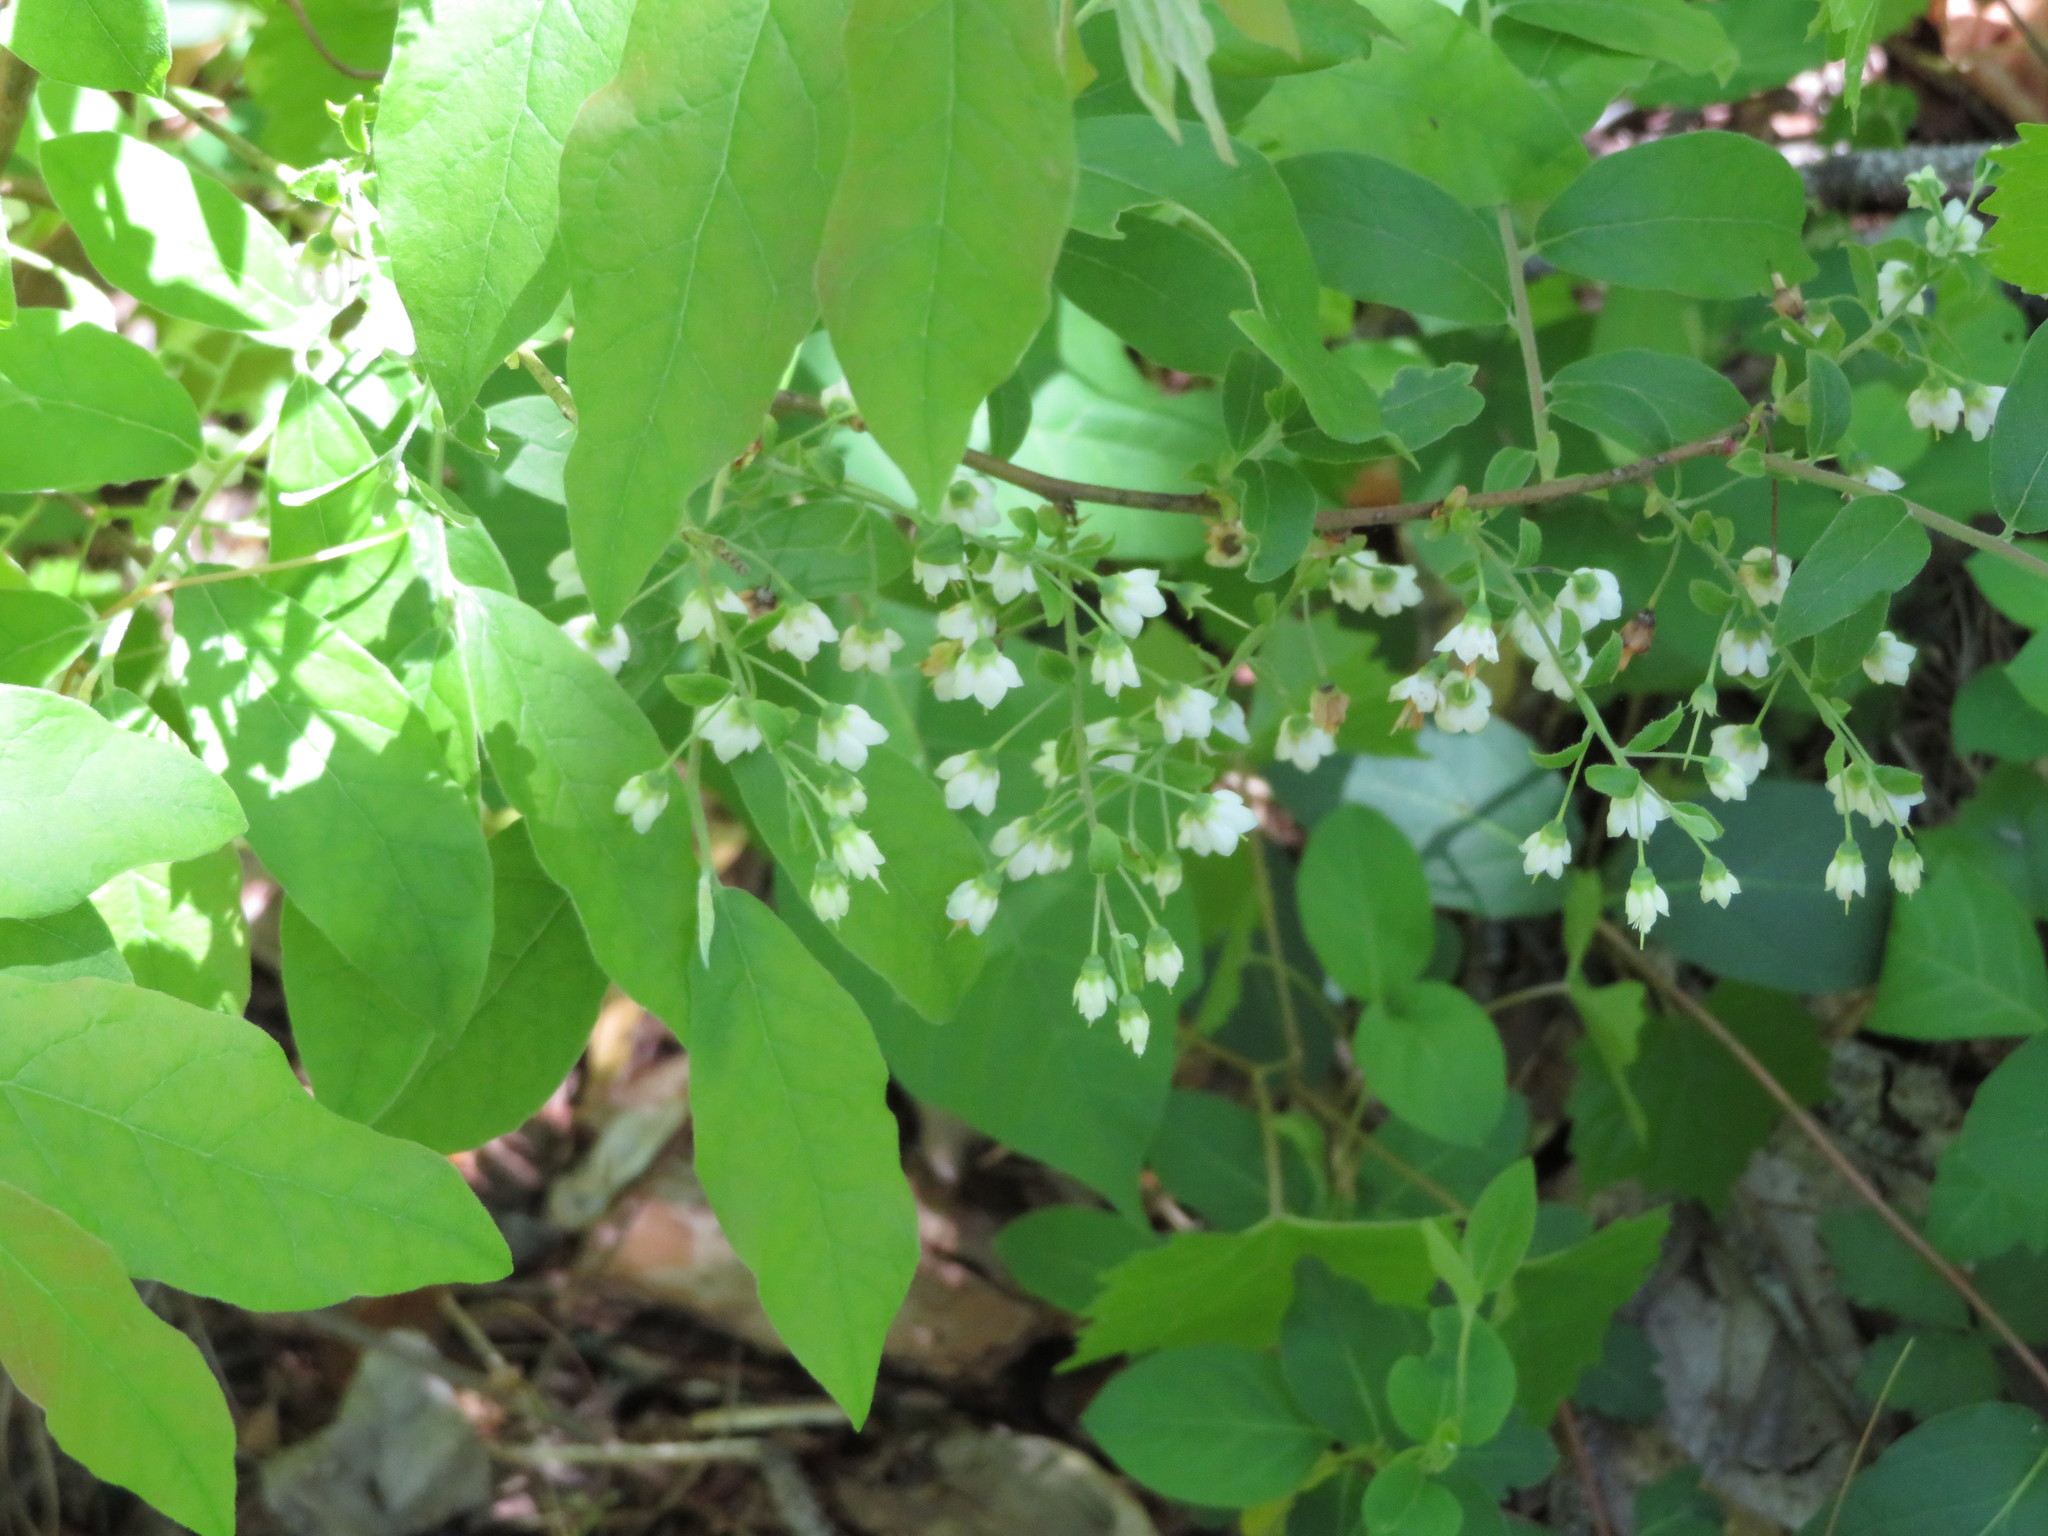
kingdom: Plantae
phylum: Tracheophyta
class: Magnoliopsida
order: Ericales
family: Ericaceae
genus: Vaccinium
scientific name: Vaccinium stamineum
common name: Deerberry
